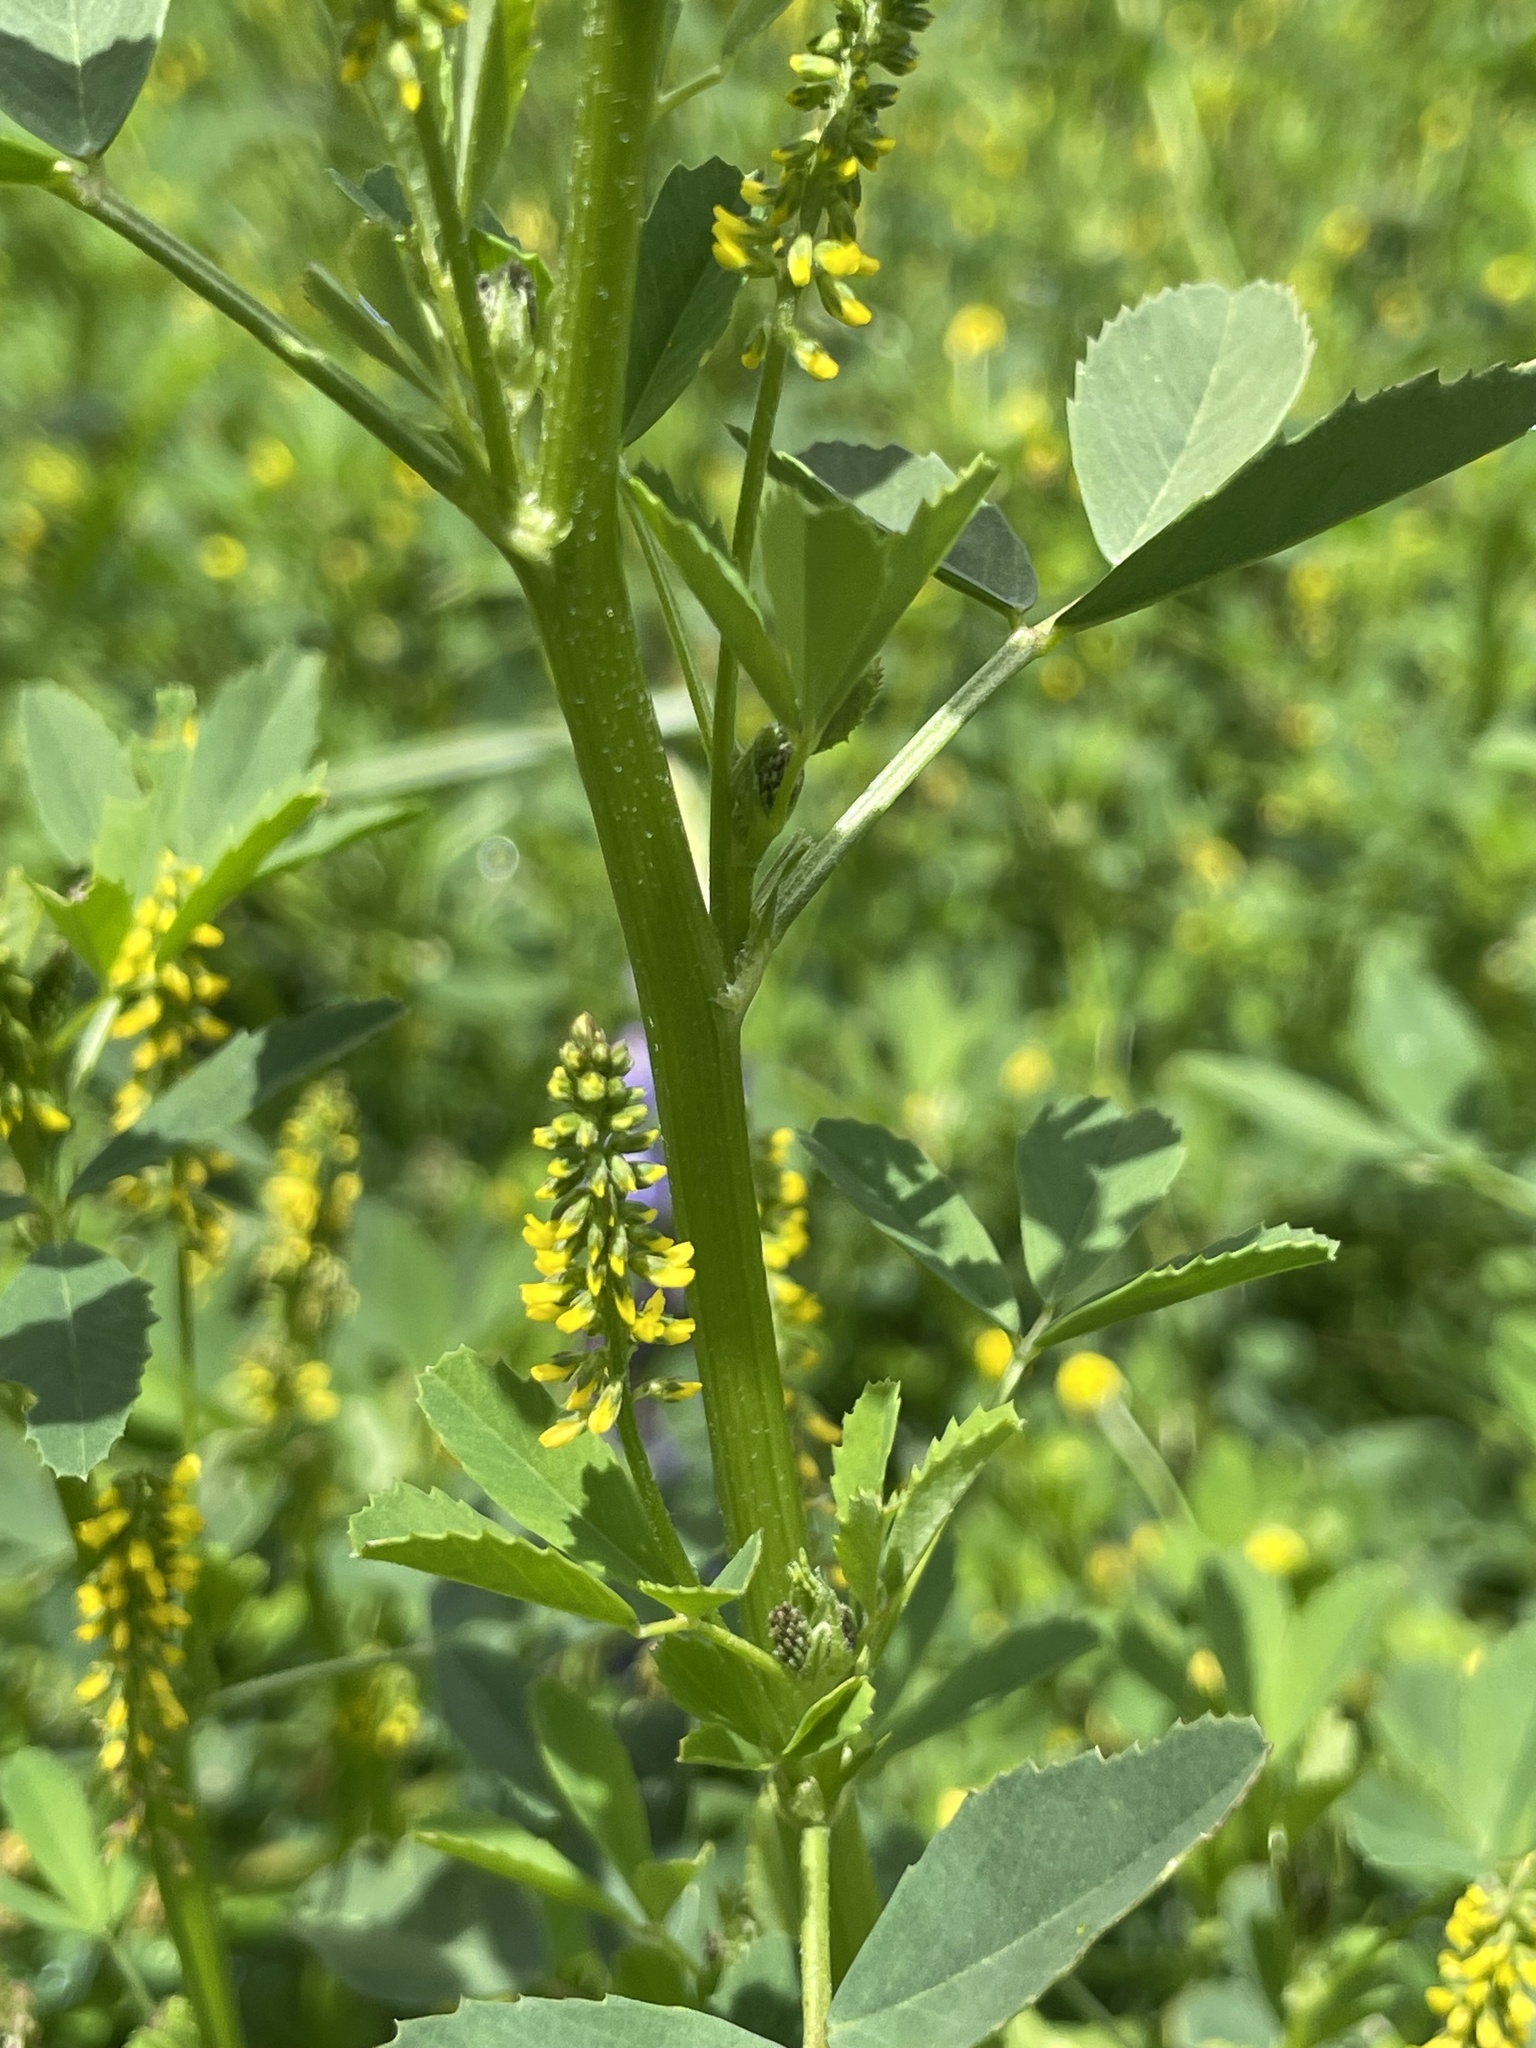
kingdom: Plantae
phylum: Tracheophyta
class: Magnoliopsida
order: Fabales
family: Fabaceae
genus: Melilotus
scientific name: Melilotus indicus
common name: Small melilot
